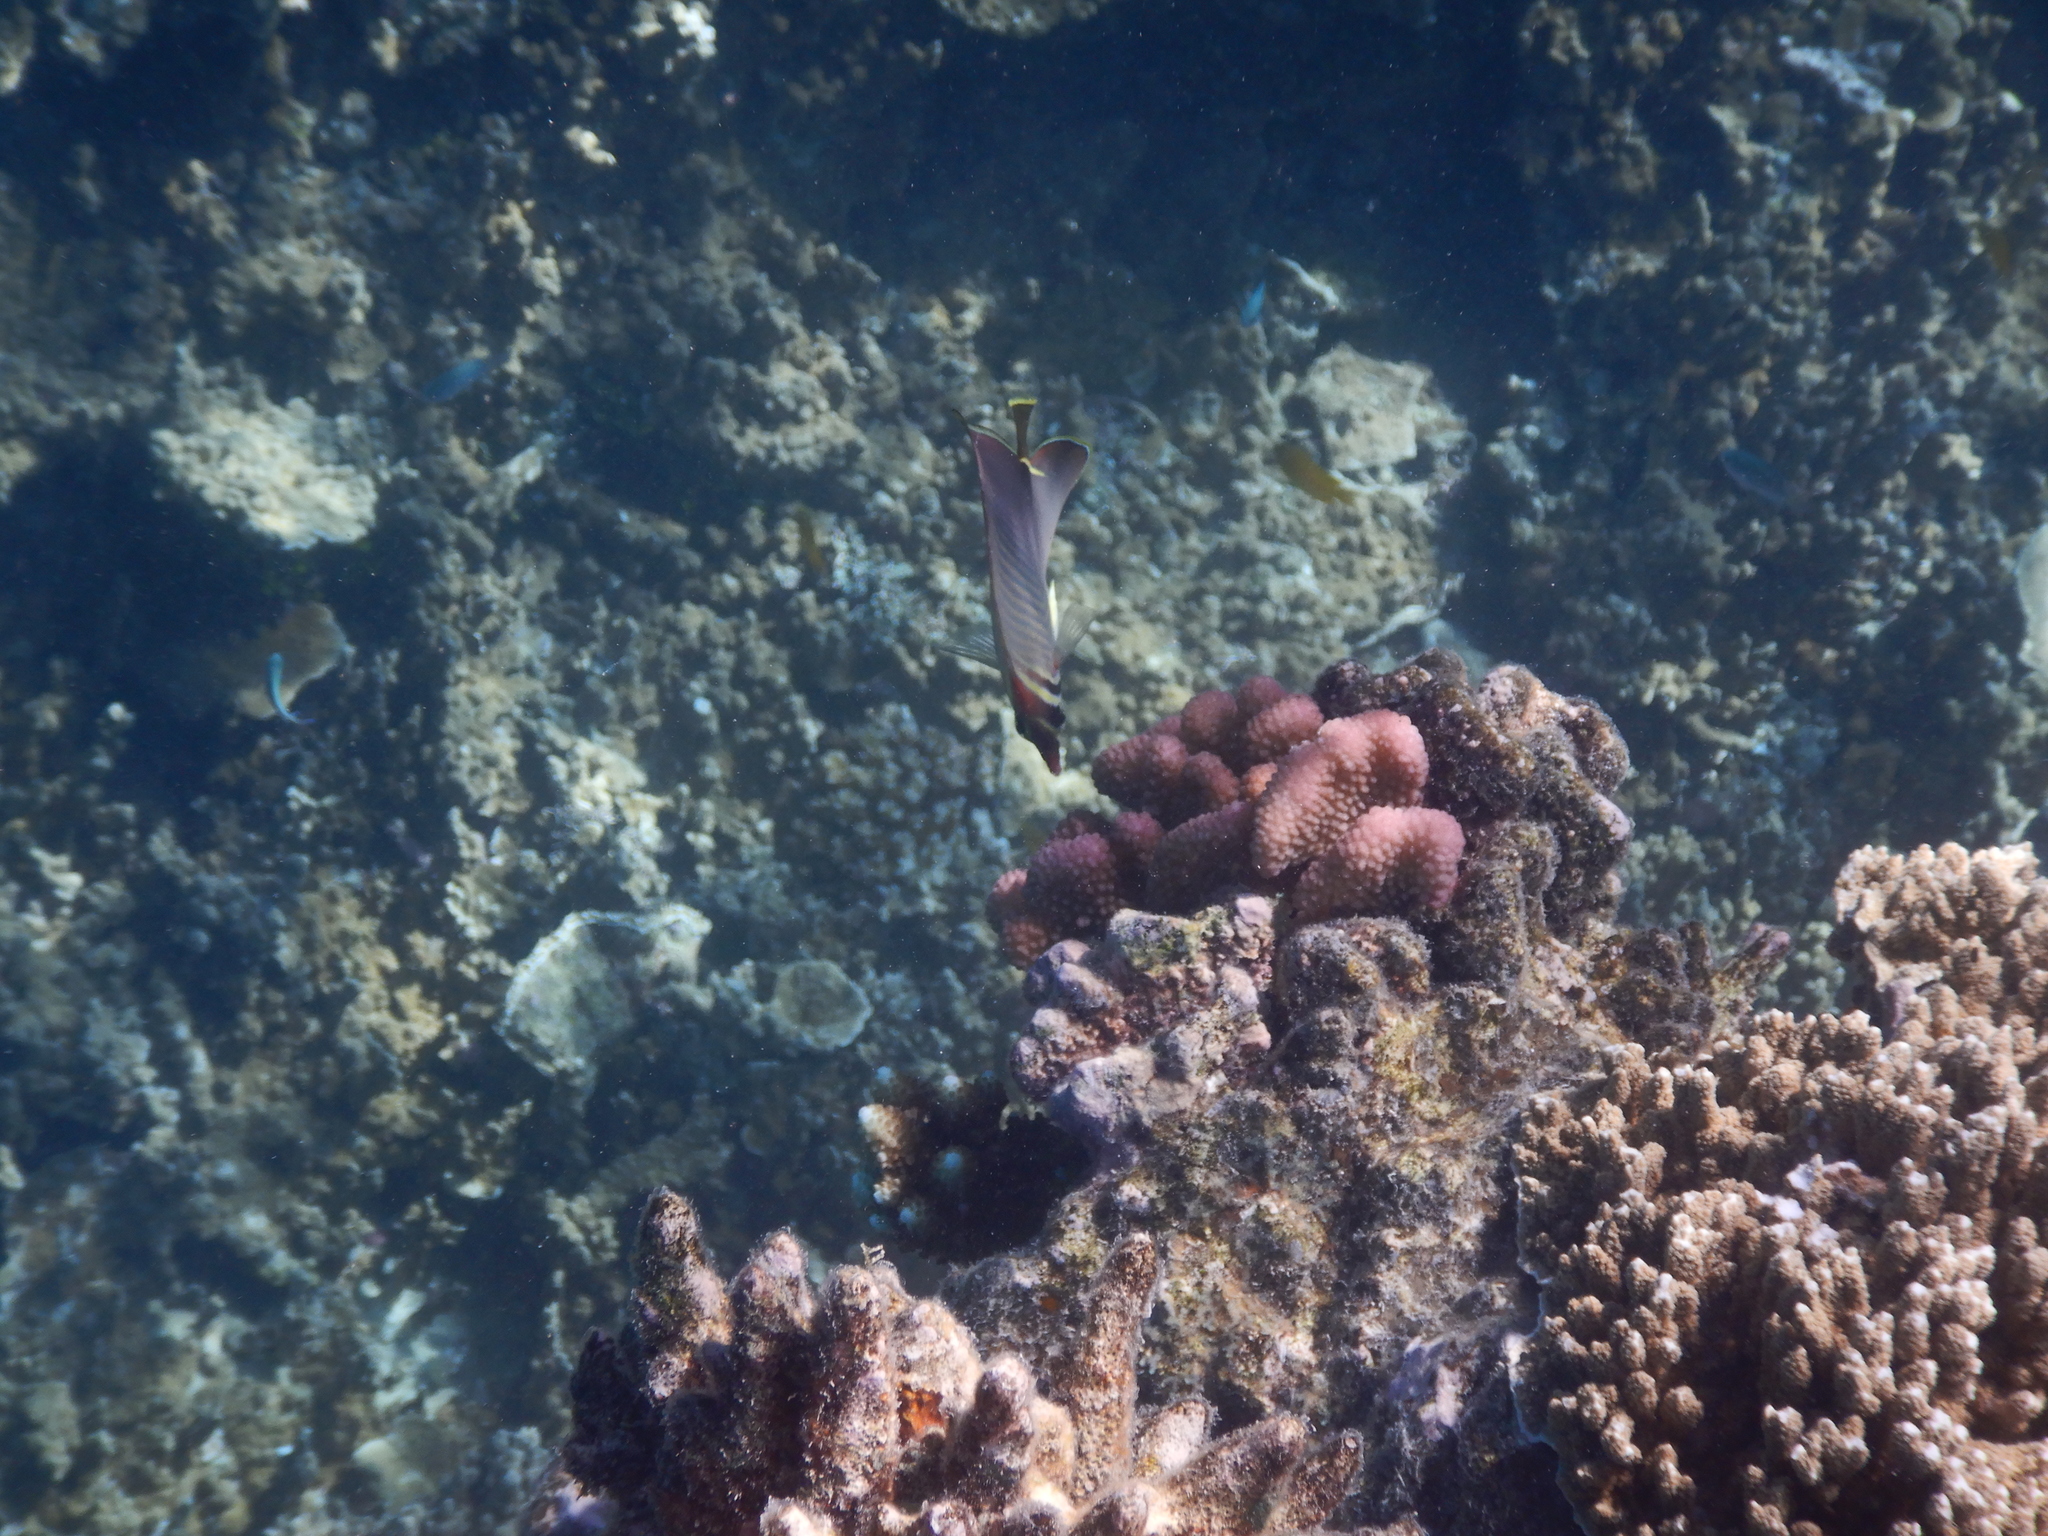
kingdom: Animalia
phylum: Chordata
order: Perciformes
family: Chaetodontidae
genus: Chaetodon
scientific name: Chaetodon baronessa
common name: Triangular butterflyfish
